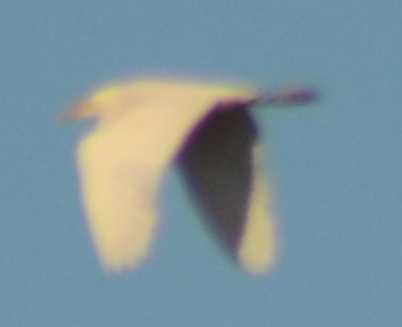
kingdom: Animalia
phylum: Chordata
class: Aves
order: Pelecaniformes
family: Ardeidae
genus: Bubulcus
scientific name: Bubulcus ibis
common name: Cattle egret
